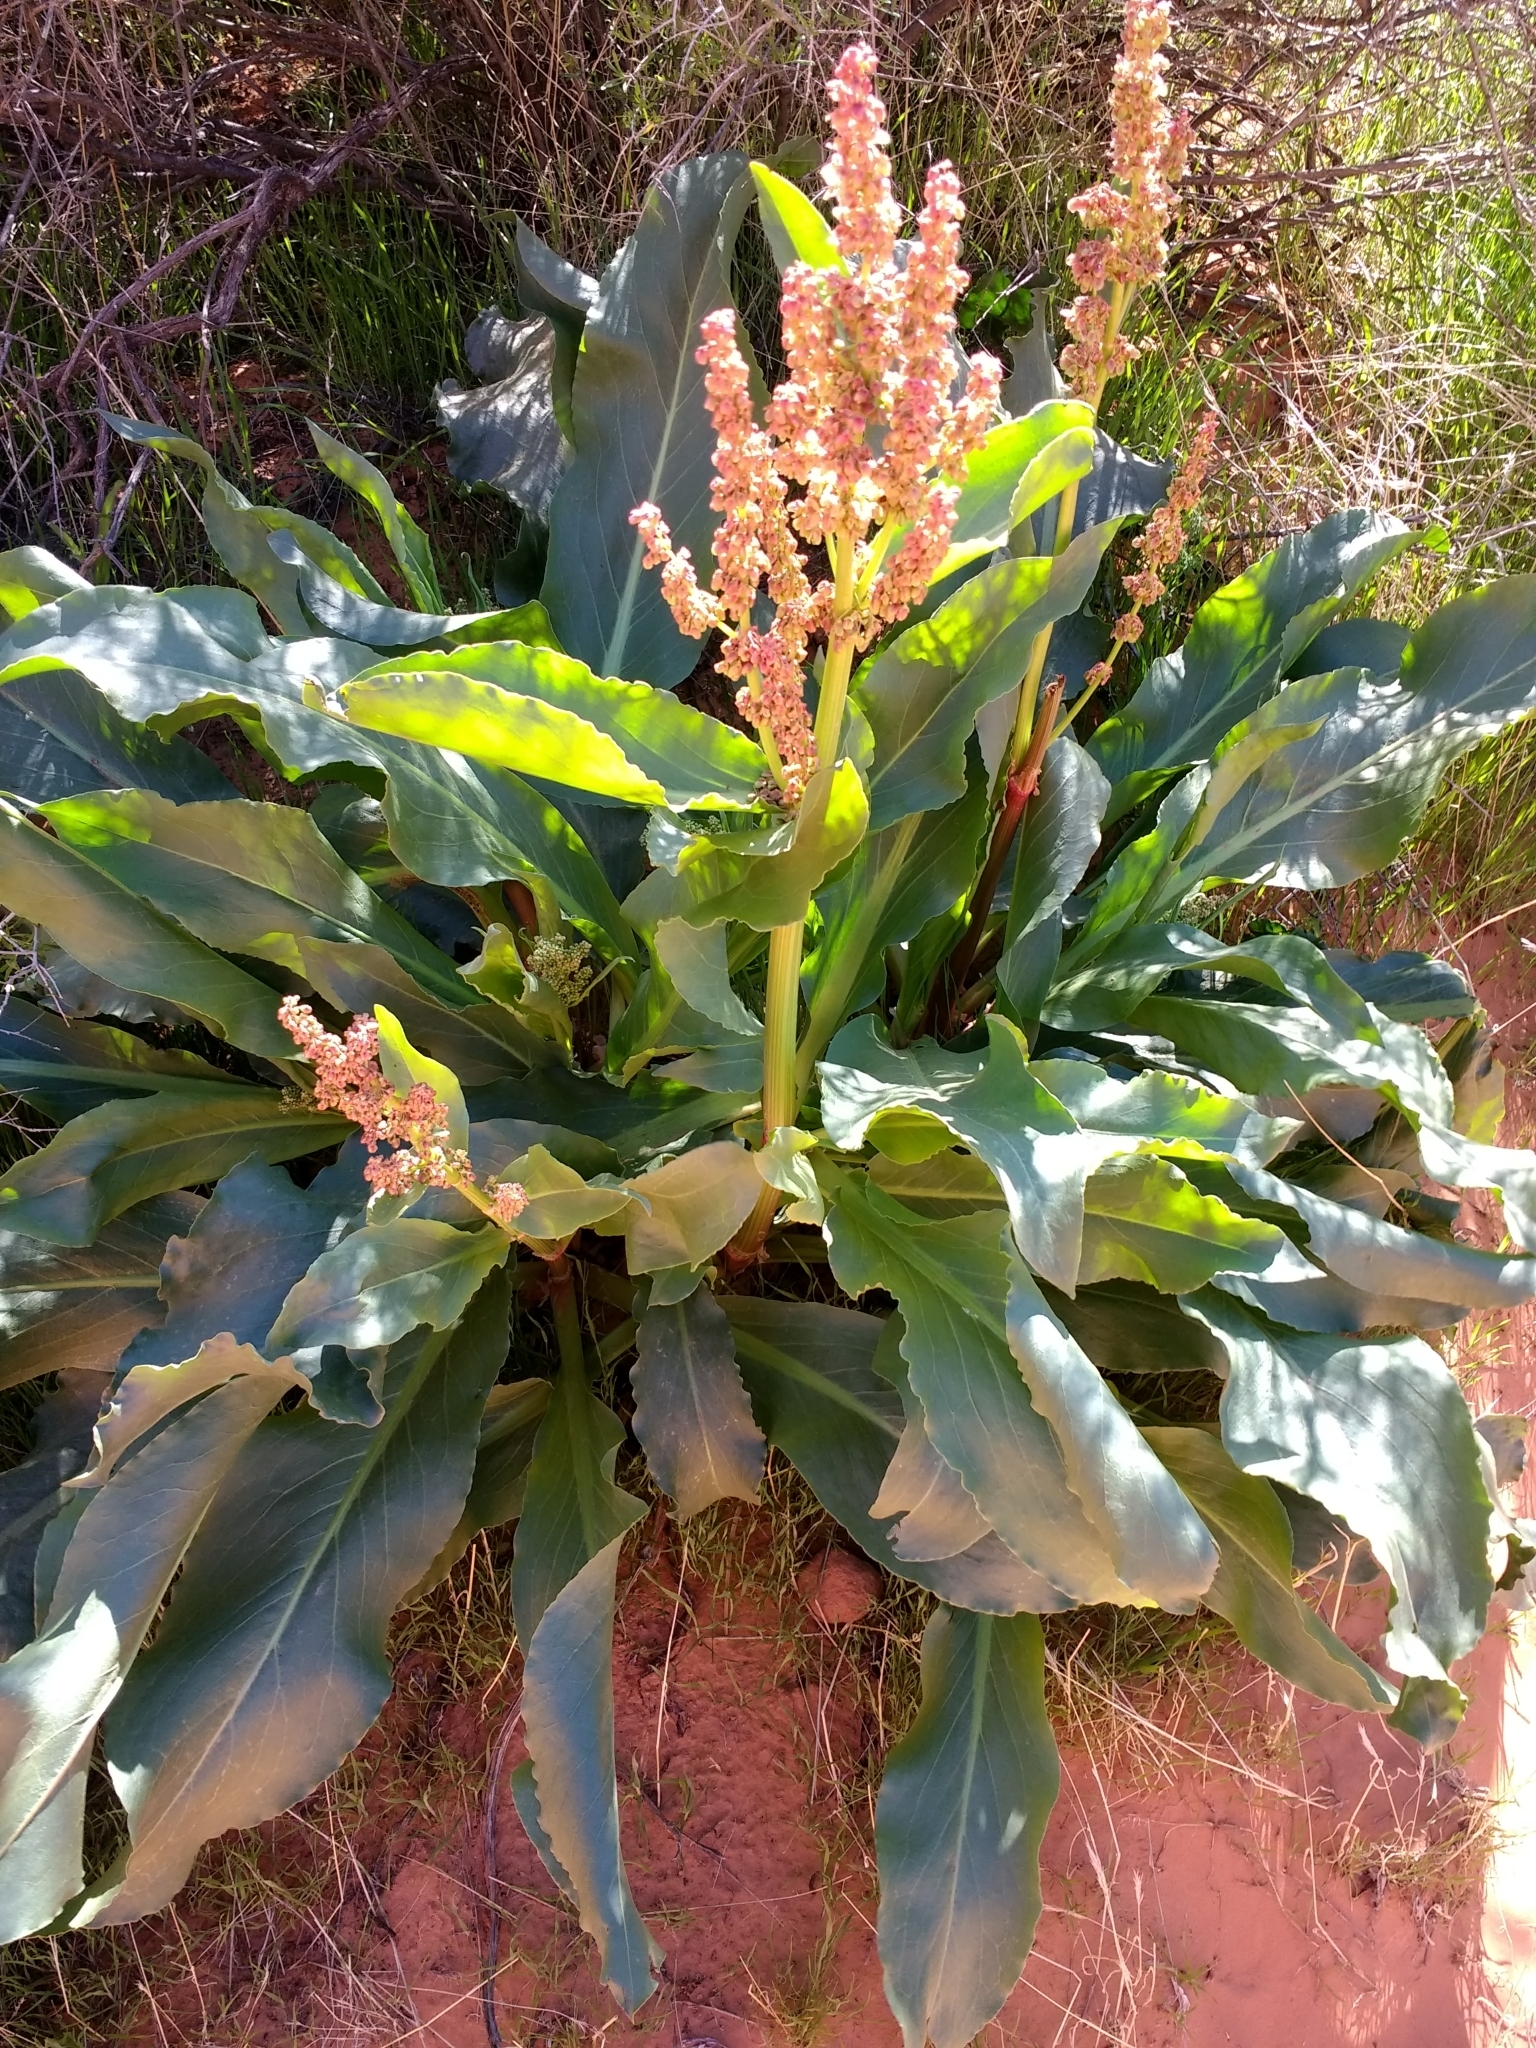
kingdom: Plantae
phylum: Tracheophyta
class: Magnoliopsida
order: Caryophyllales
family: Polygonaceae
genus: Rumex
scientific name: Rumex hymenosepalus
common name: Ganagra
